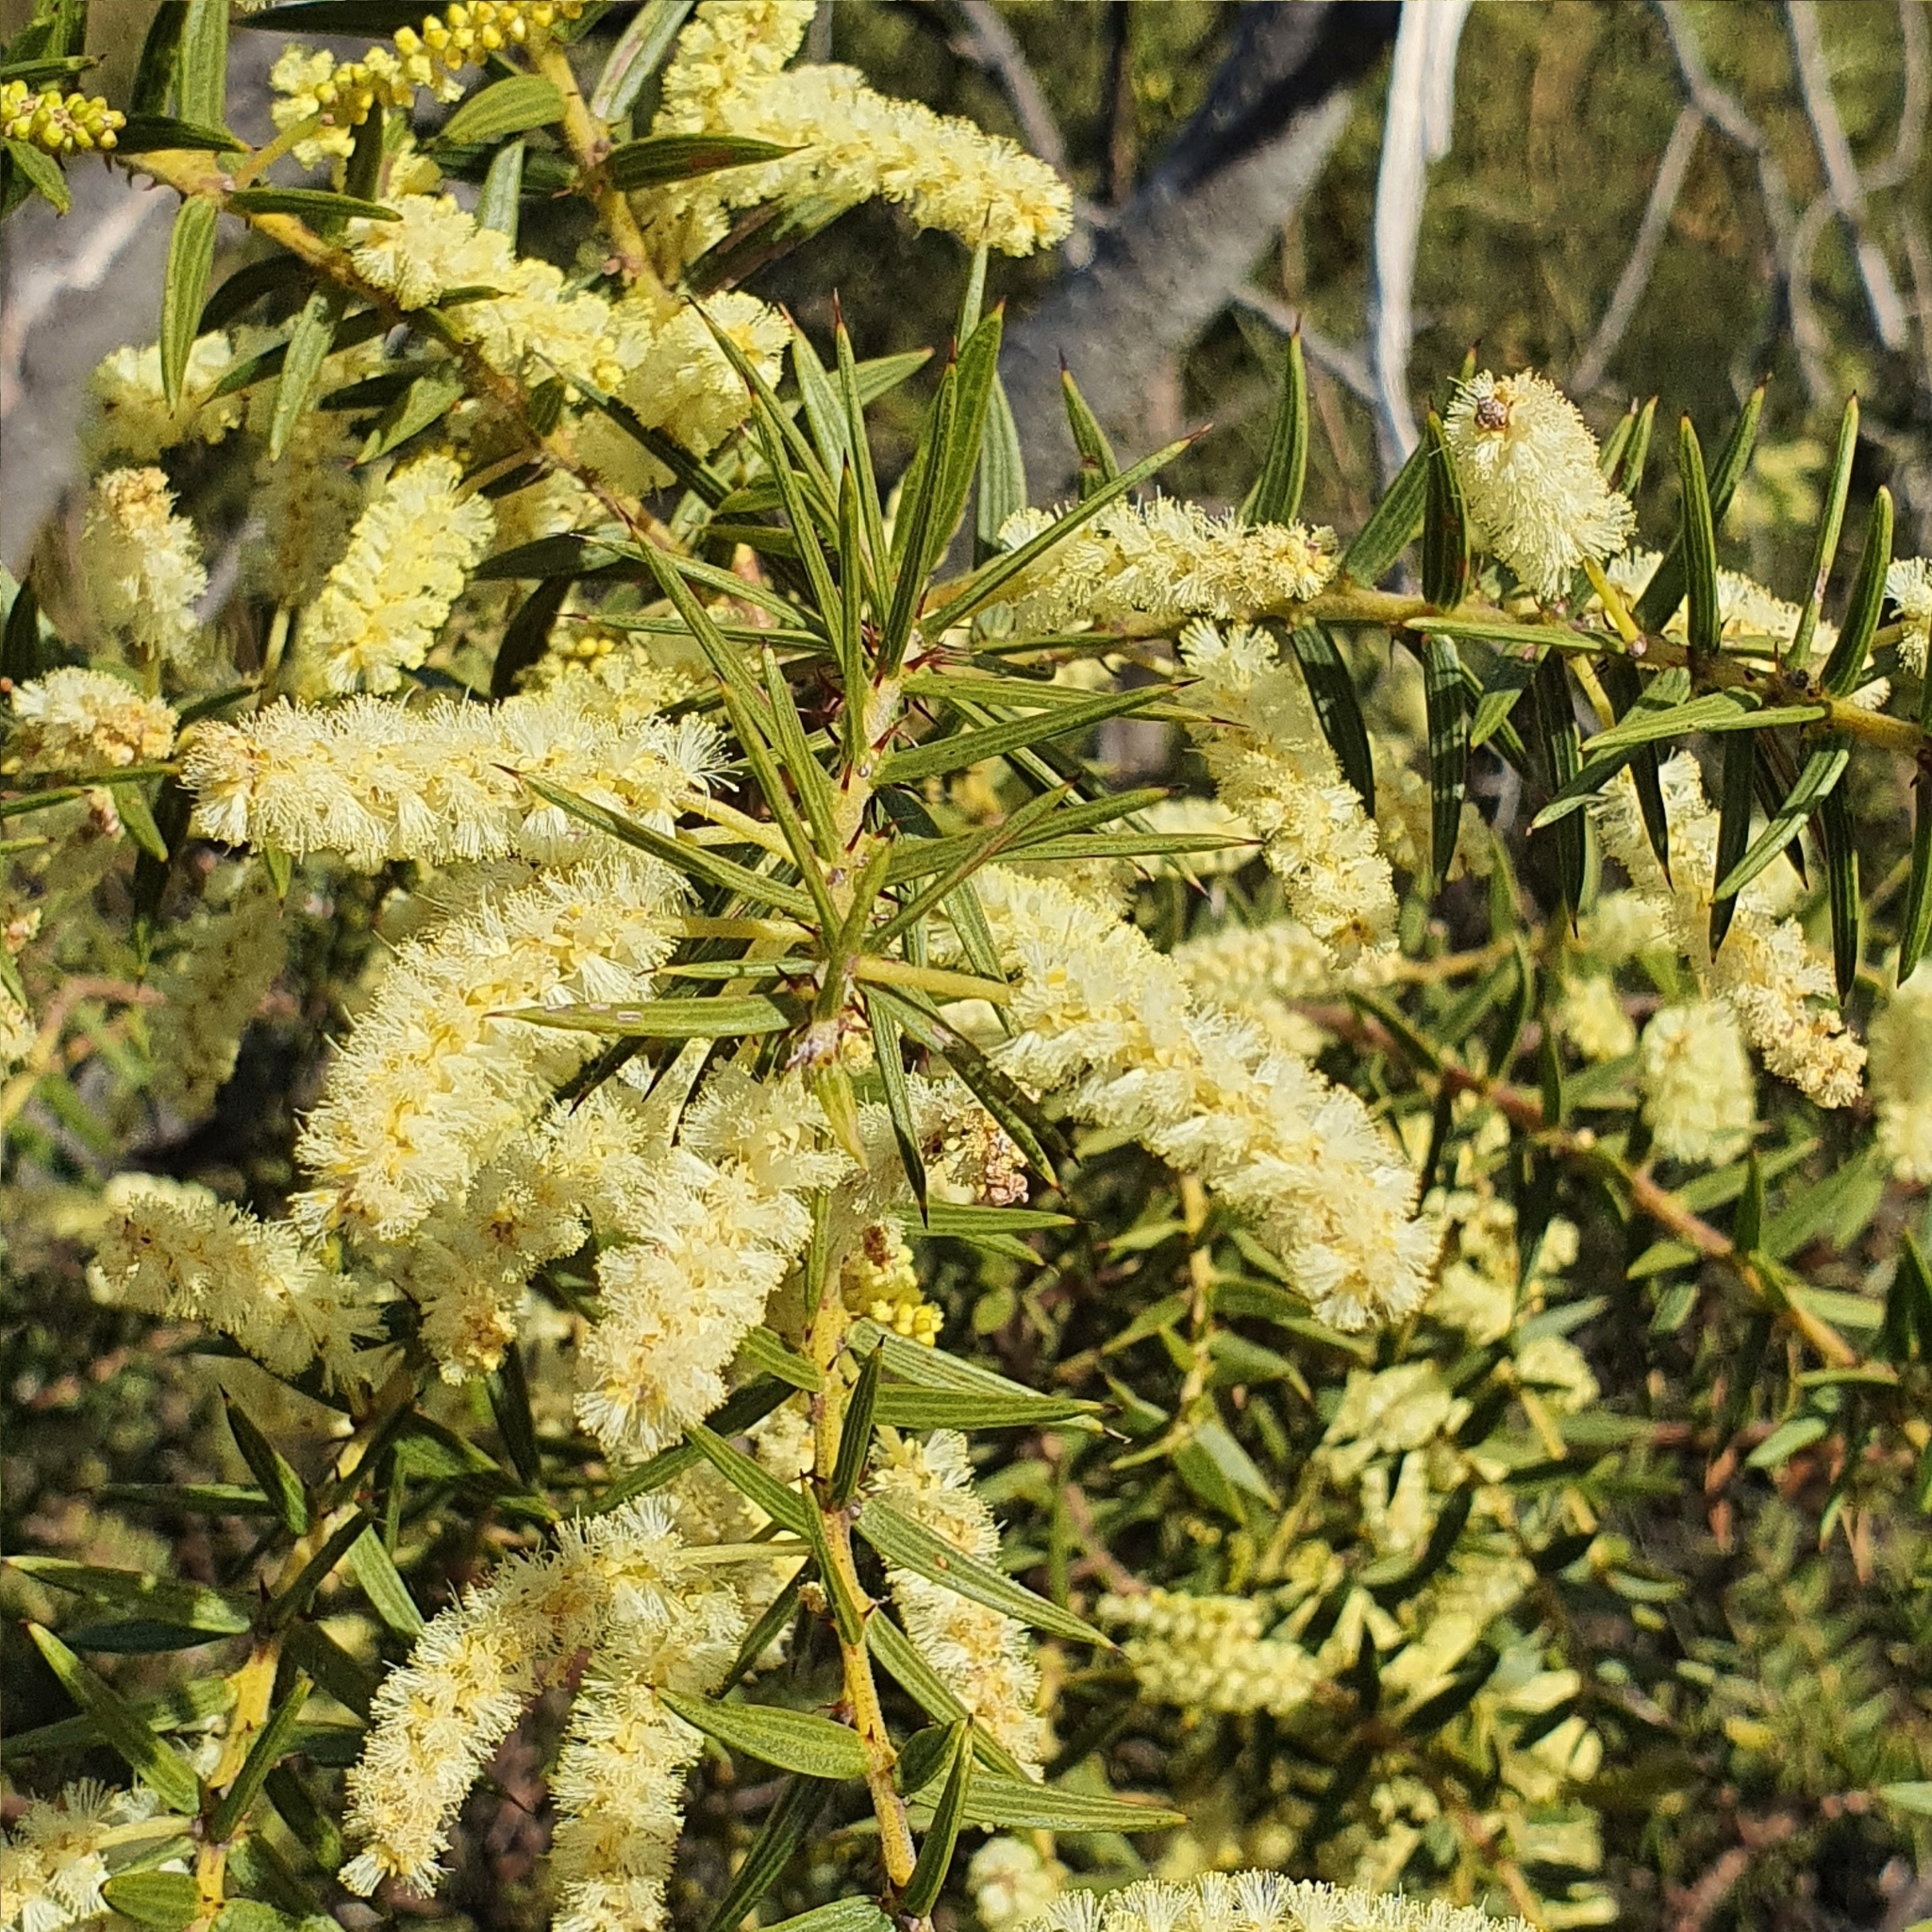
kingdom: Plantae
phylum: Tracheophyta
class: Magnoliopsida
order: Fabales
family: Fabaceae
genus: Acacia
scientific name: Acacia oxycedrus
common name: Spike wattle
